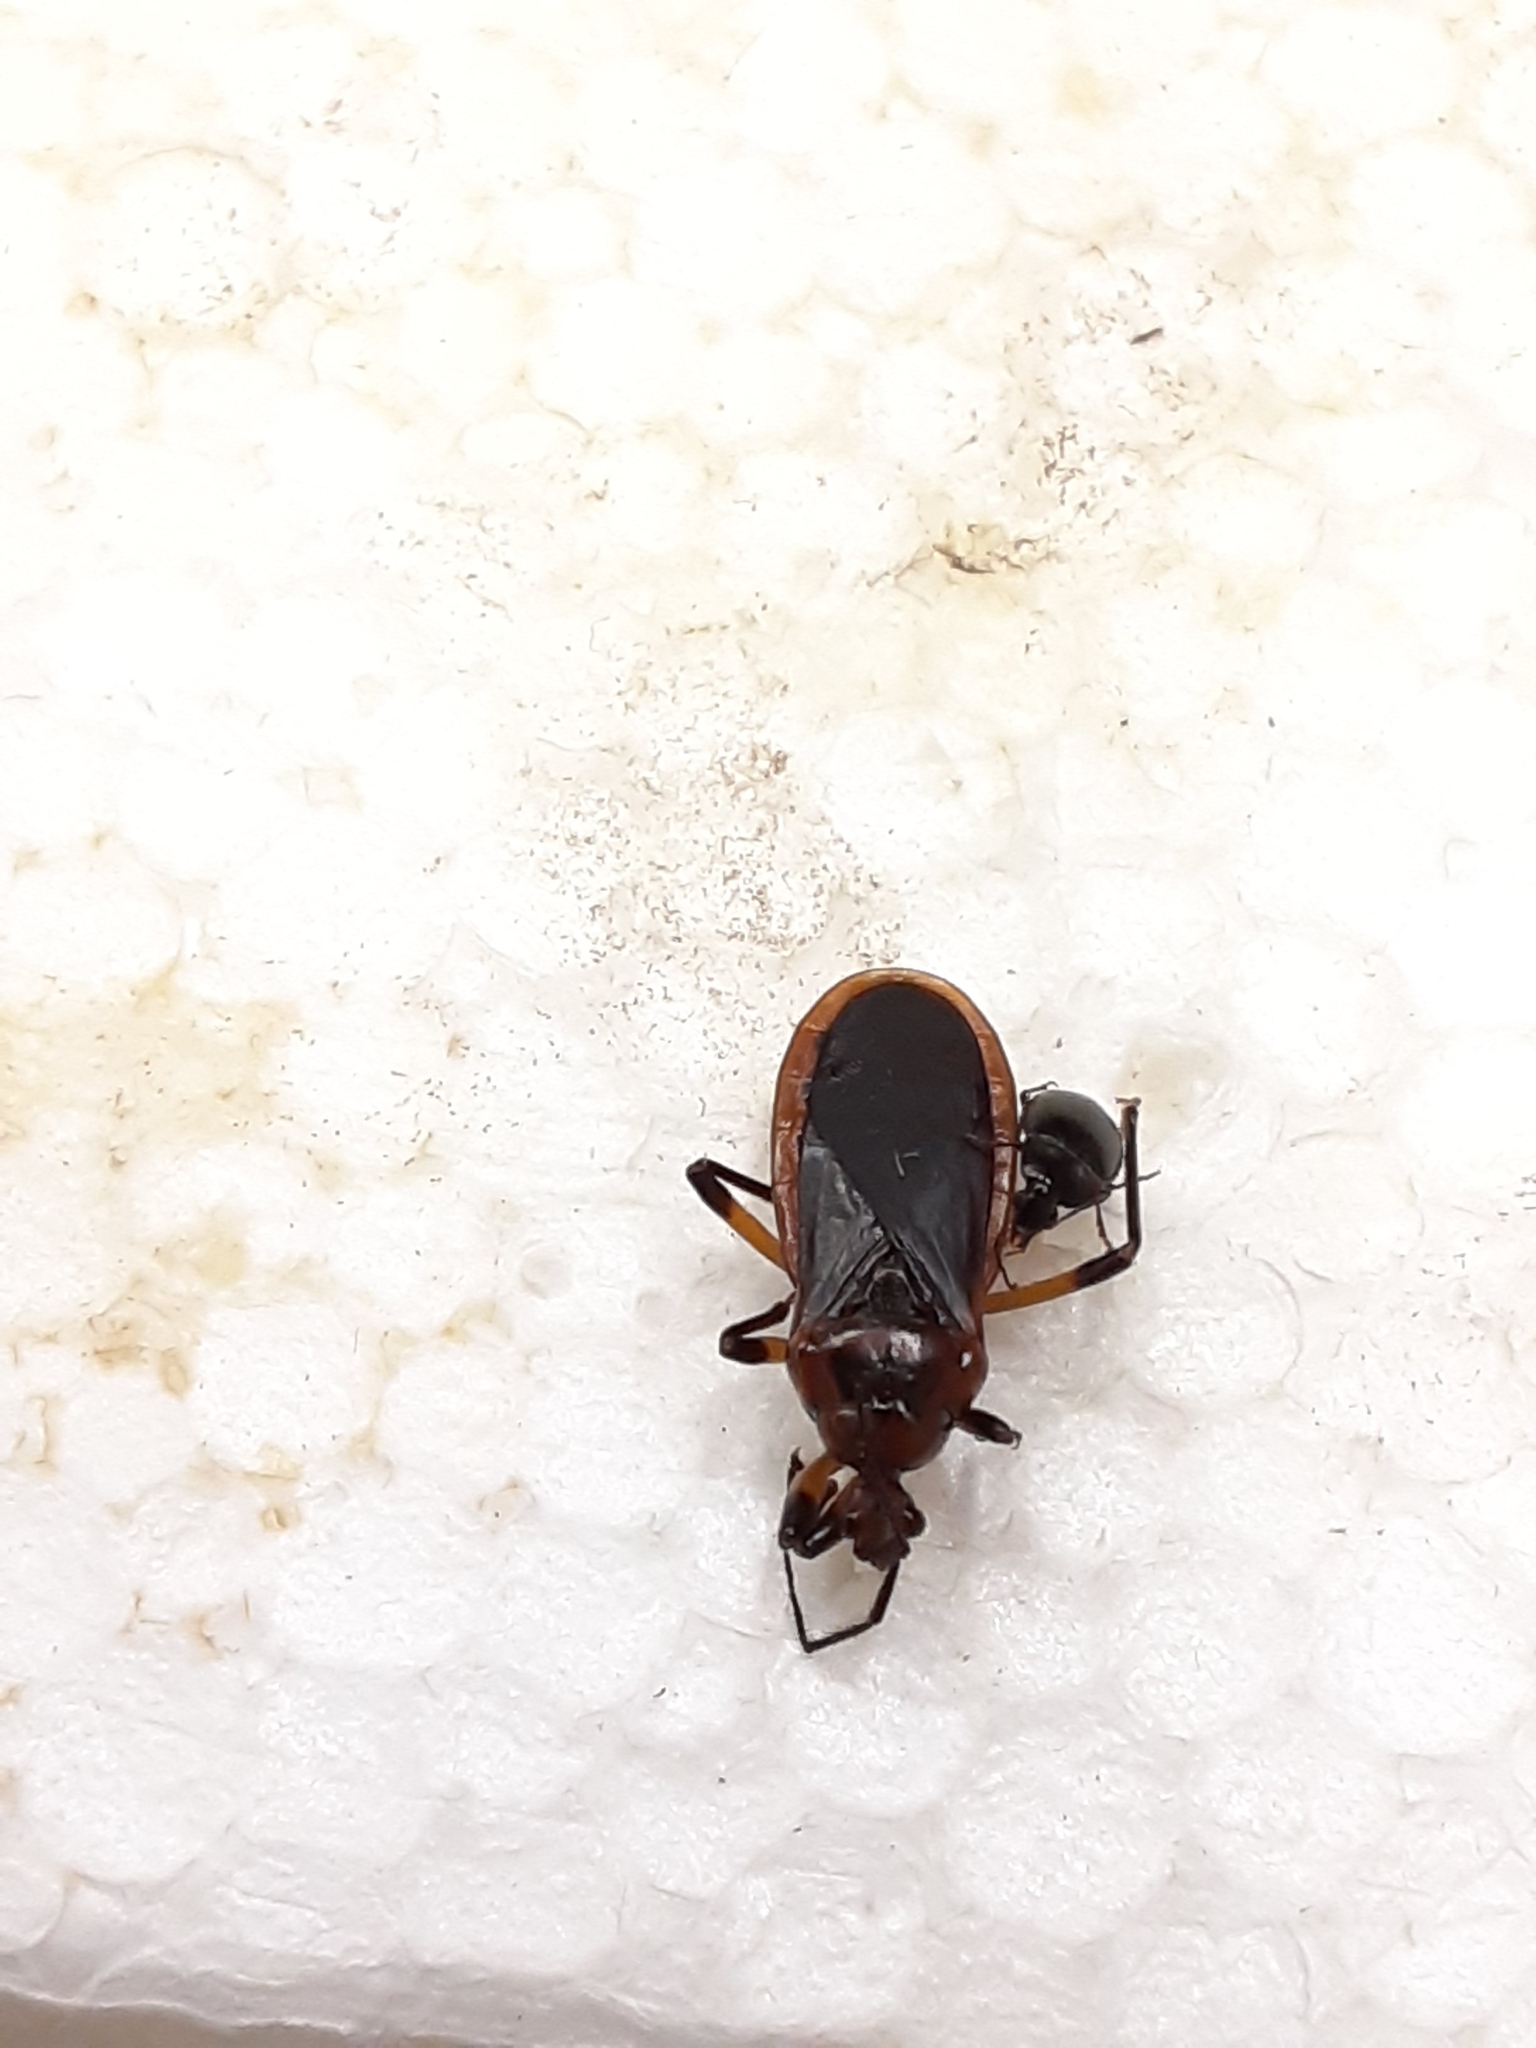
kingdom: Animalia
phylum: Arthropoda
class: Insecta
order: Hemiptera
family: Reduviidae
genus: Rhiginia
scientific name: Rhiginia cruciata
